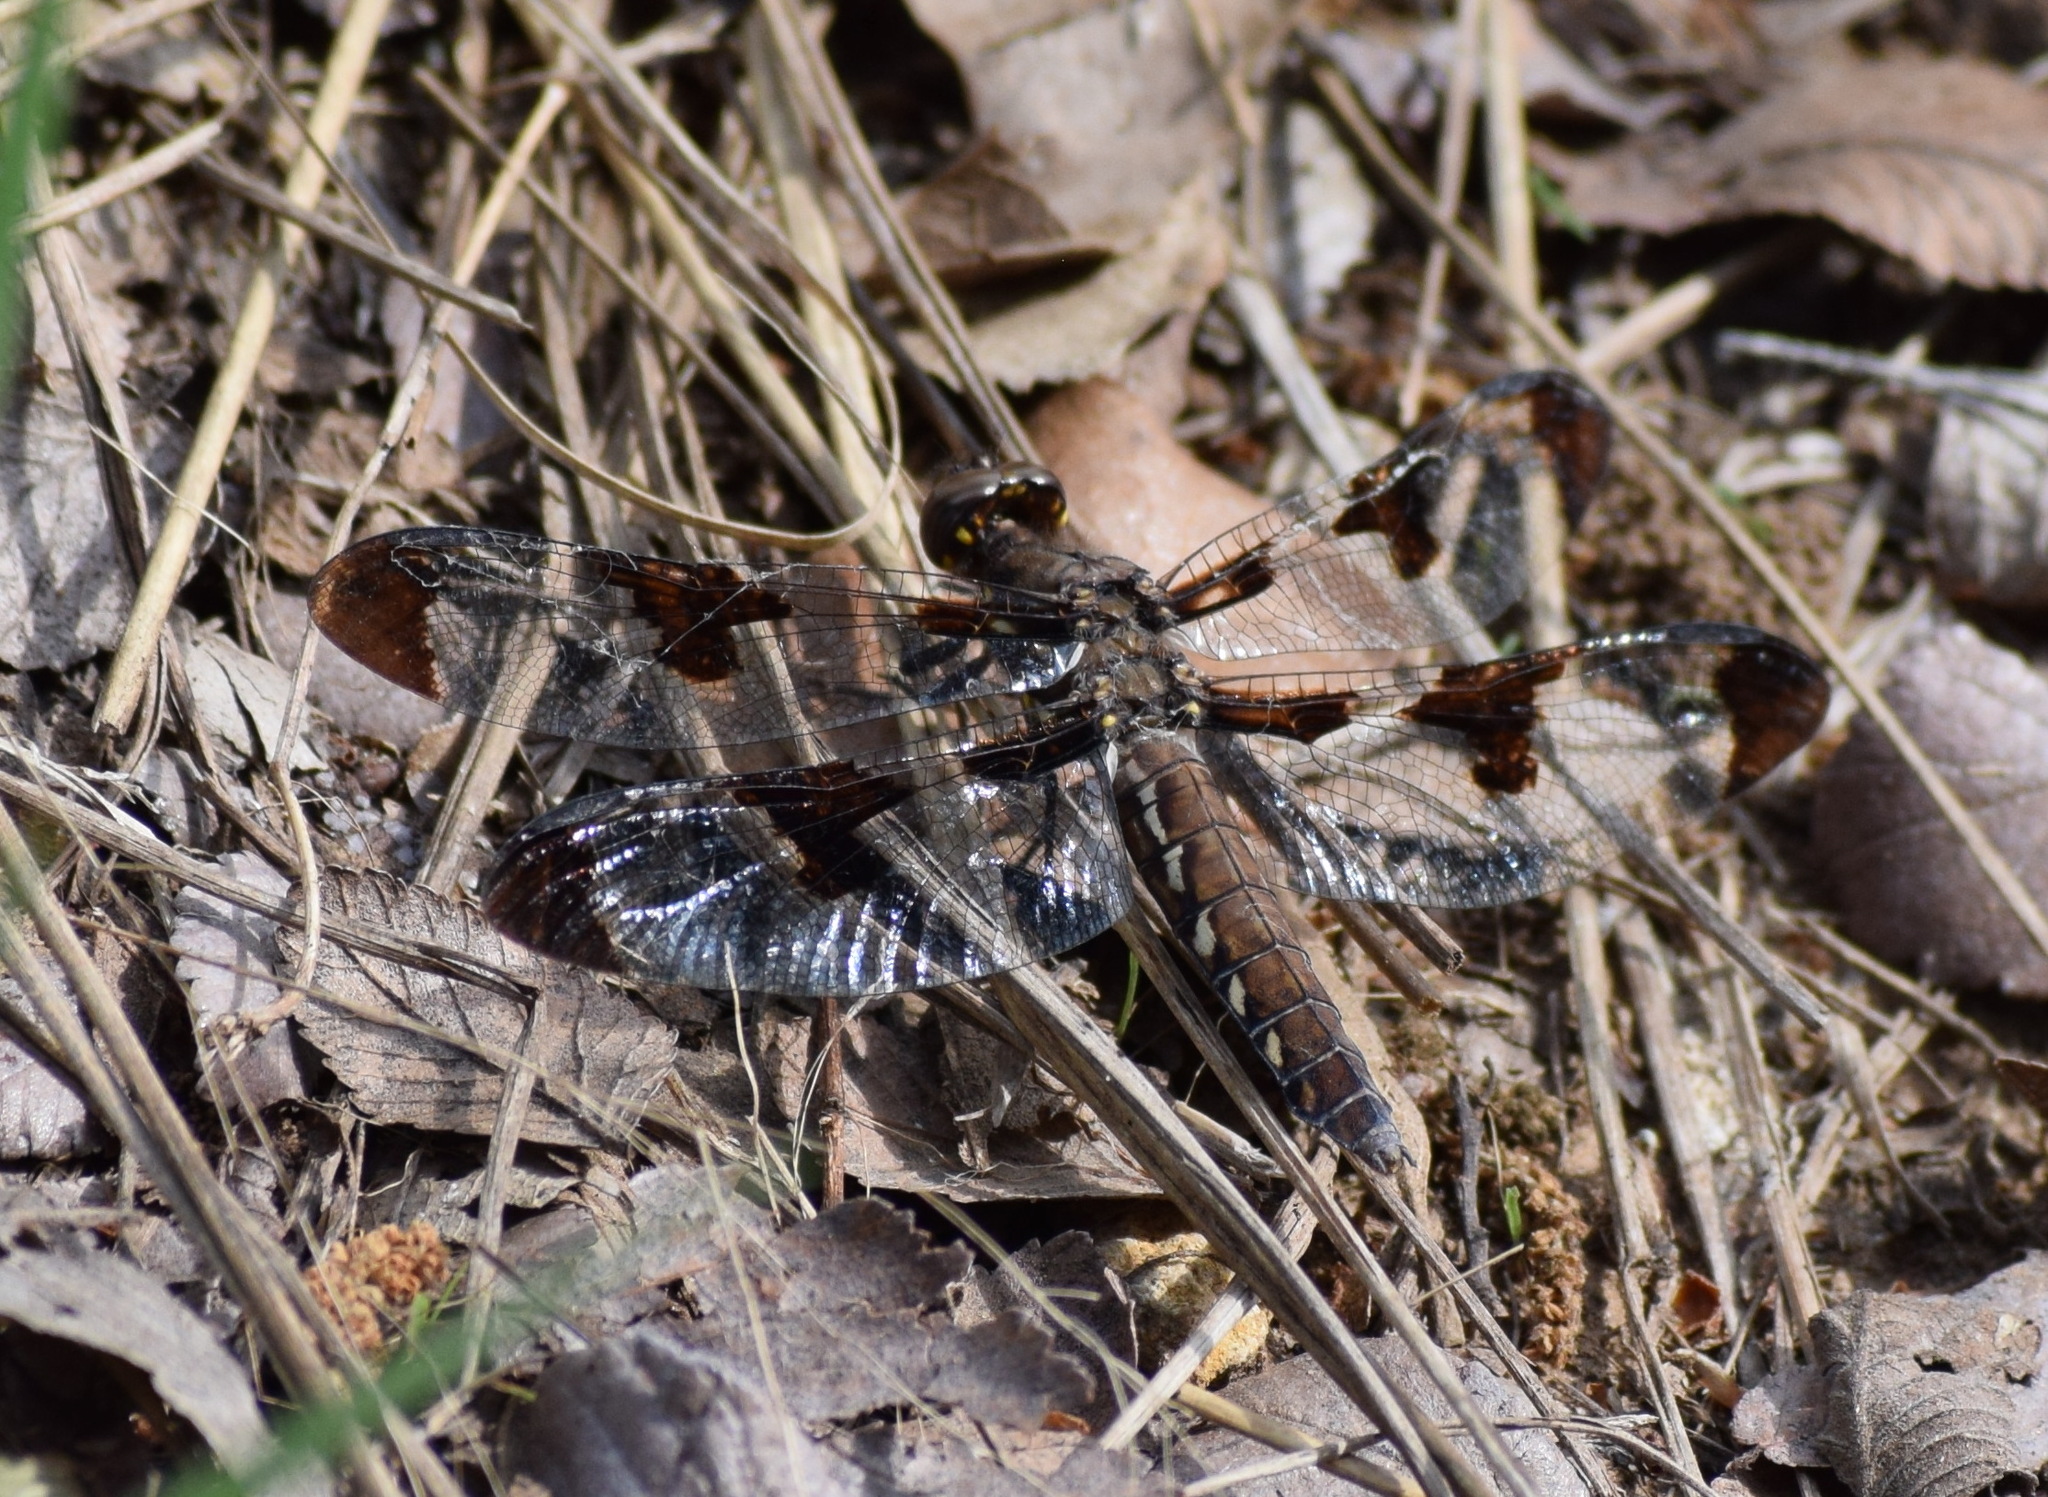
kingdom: Animalia
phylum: Arthropoda
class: Insecta
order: Odonata
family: Libellulidae
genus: Plathemis
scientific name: Plathemis lydia
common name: Common whitetail
